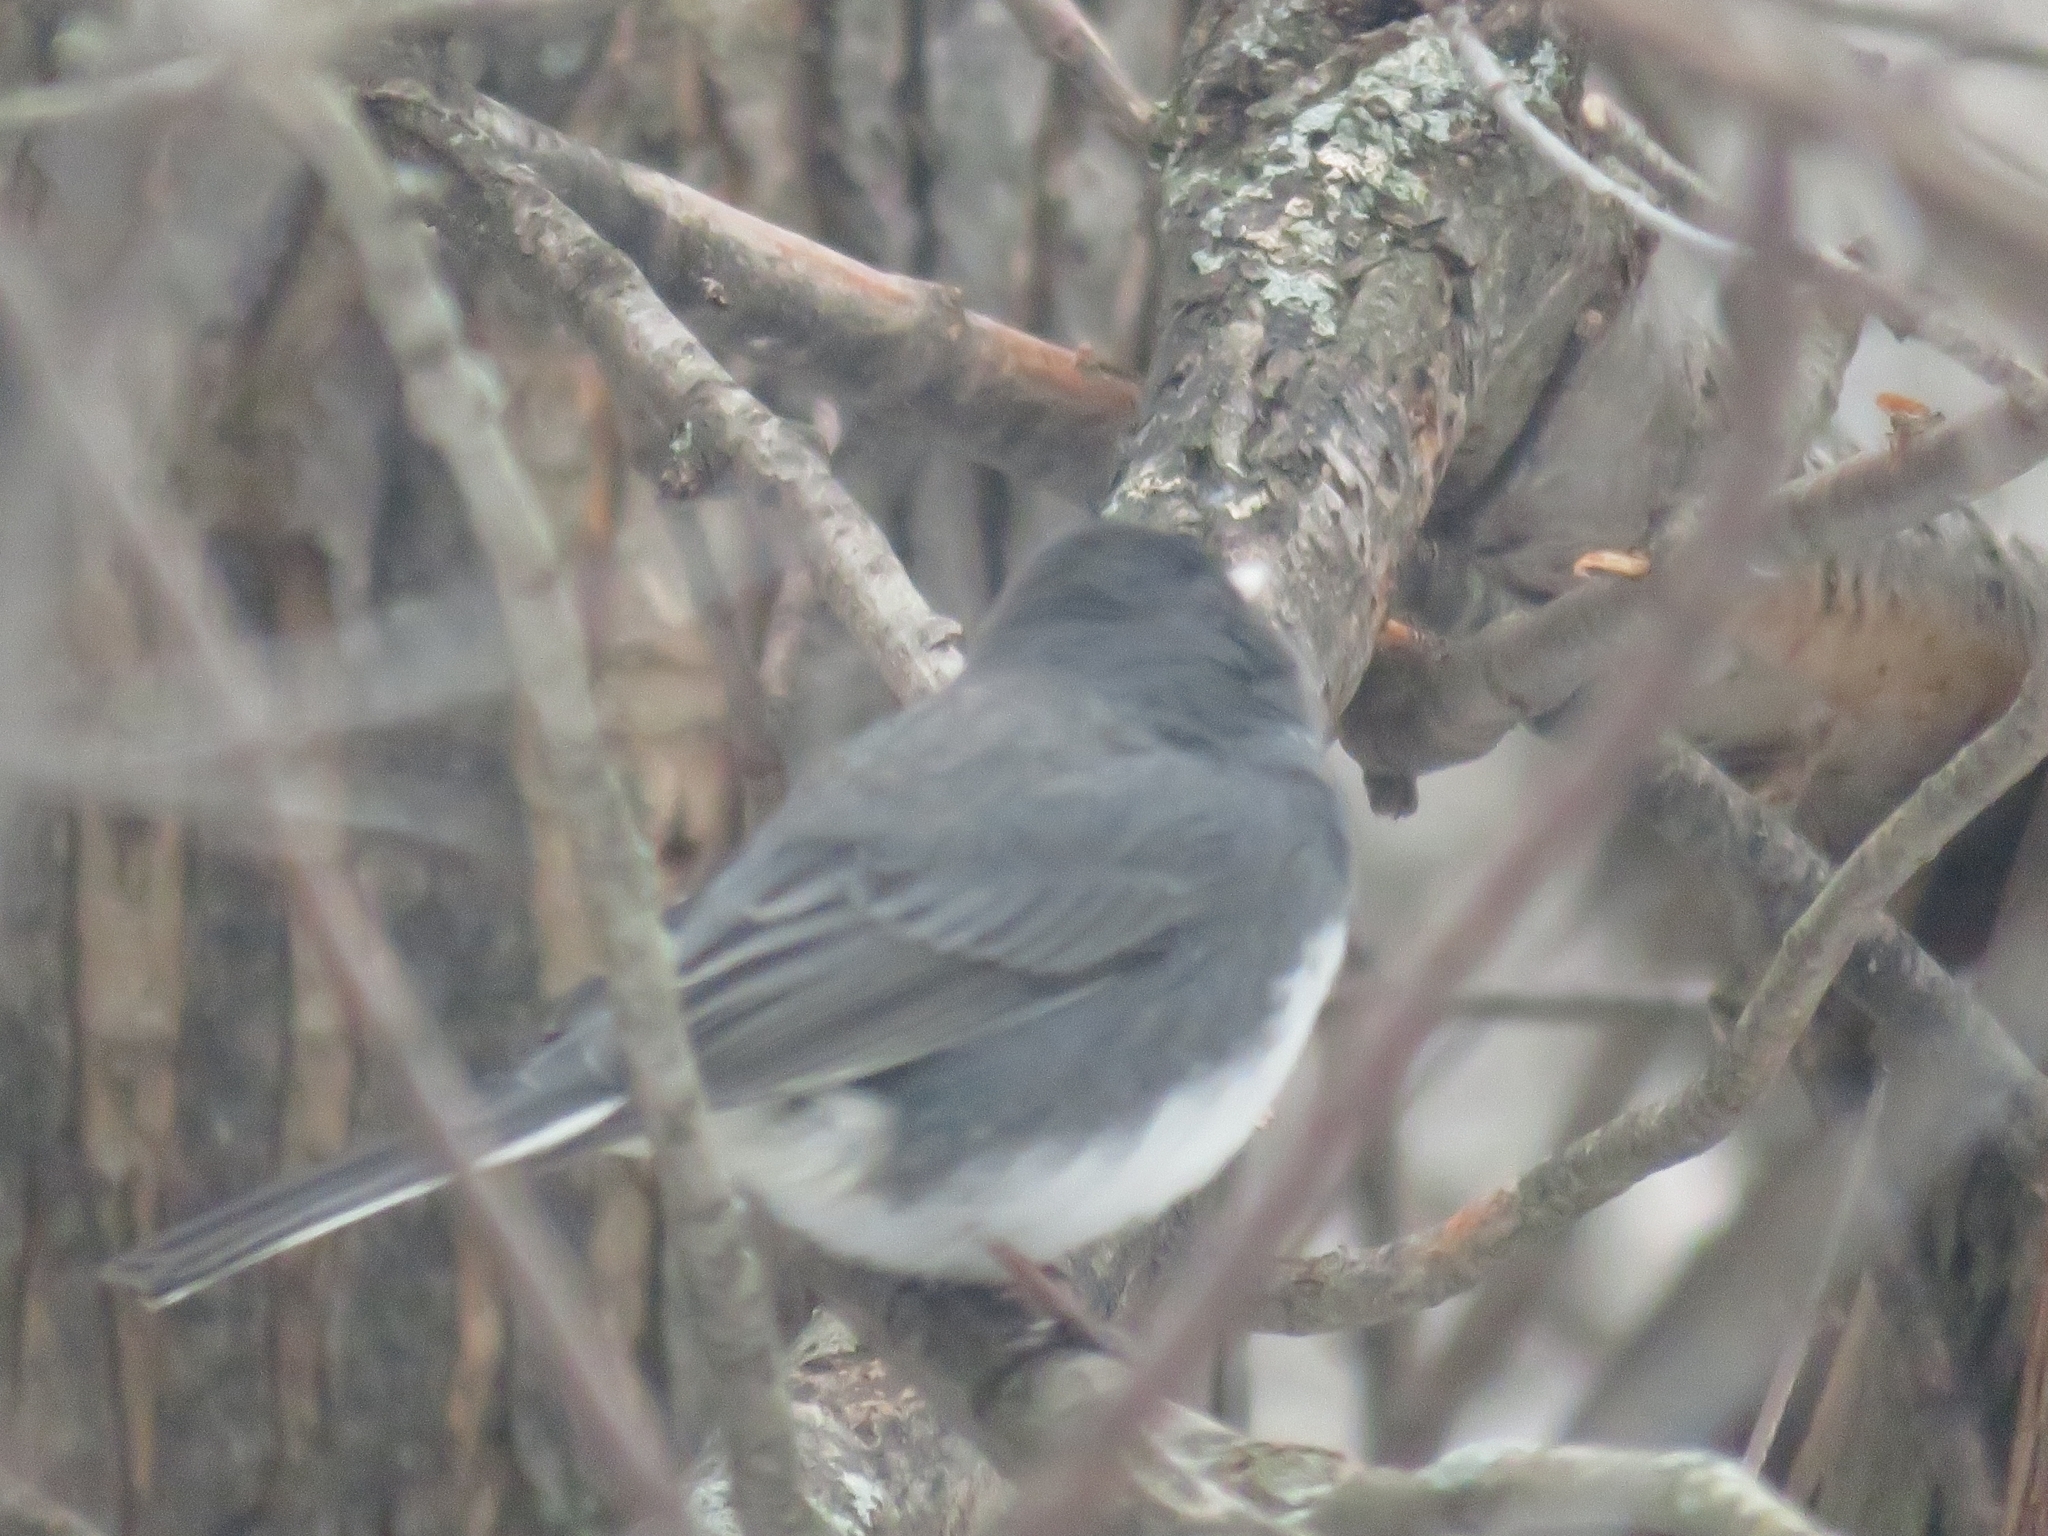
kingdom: Animalia
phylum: Chordata
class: Aves
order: Passeriformes
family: Passerellidae
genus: Junco
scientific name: Junco hyemalis
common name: Dark-eyed junco
